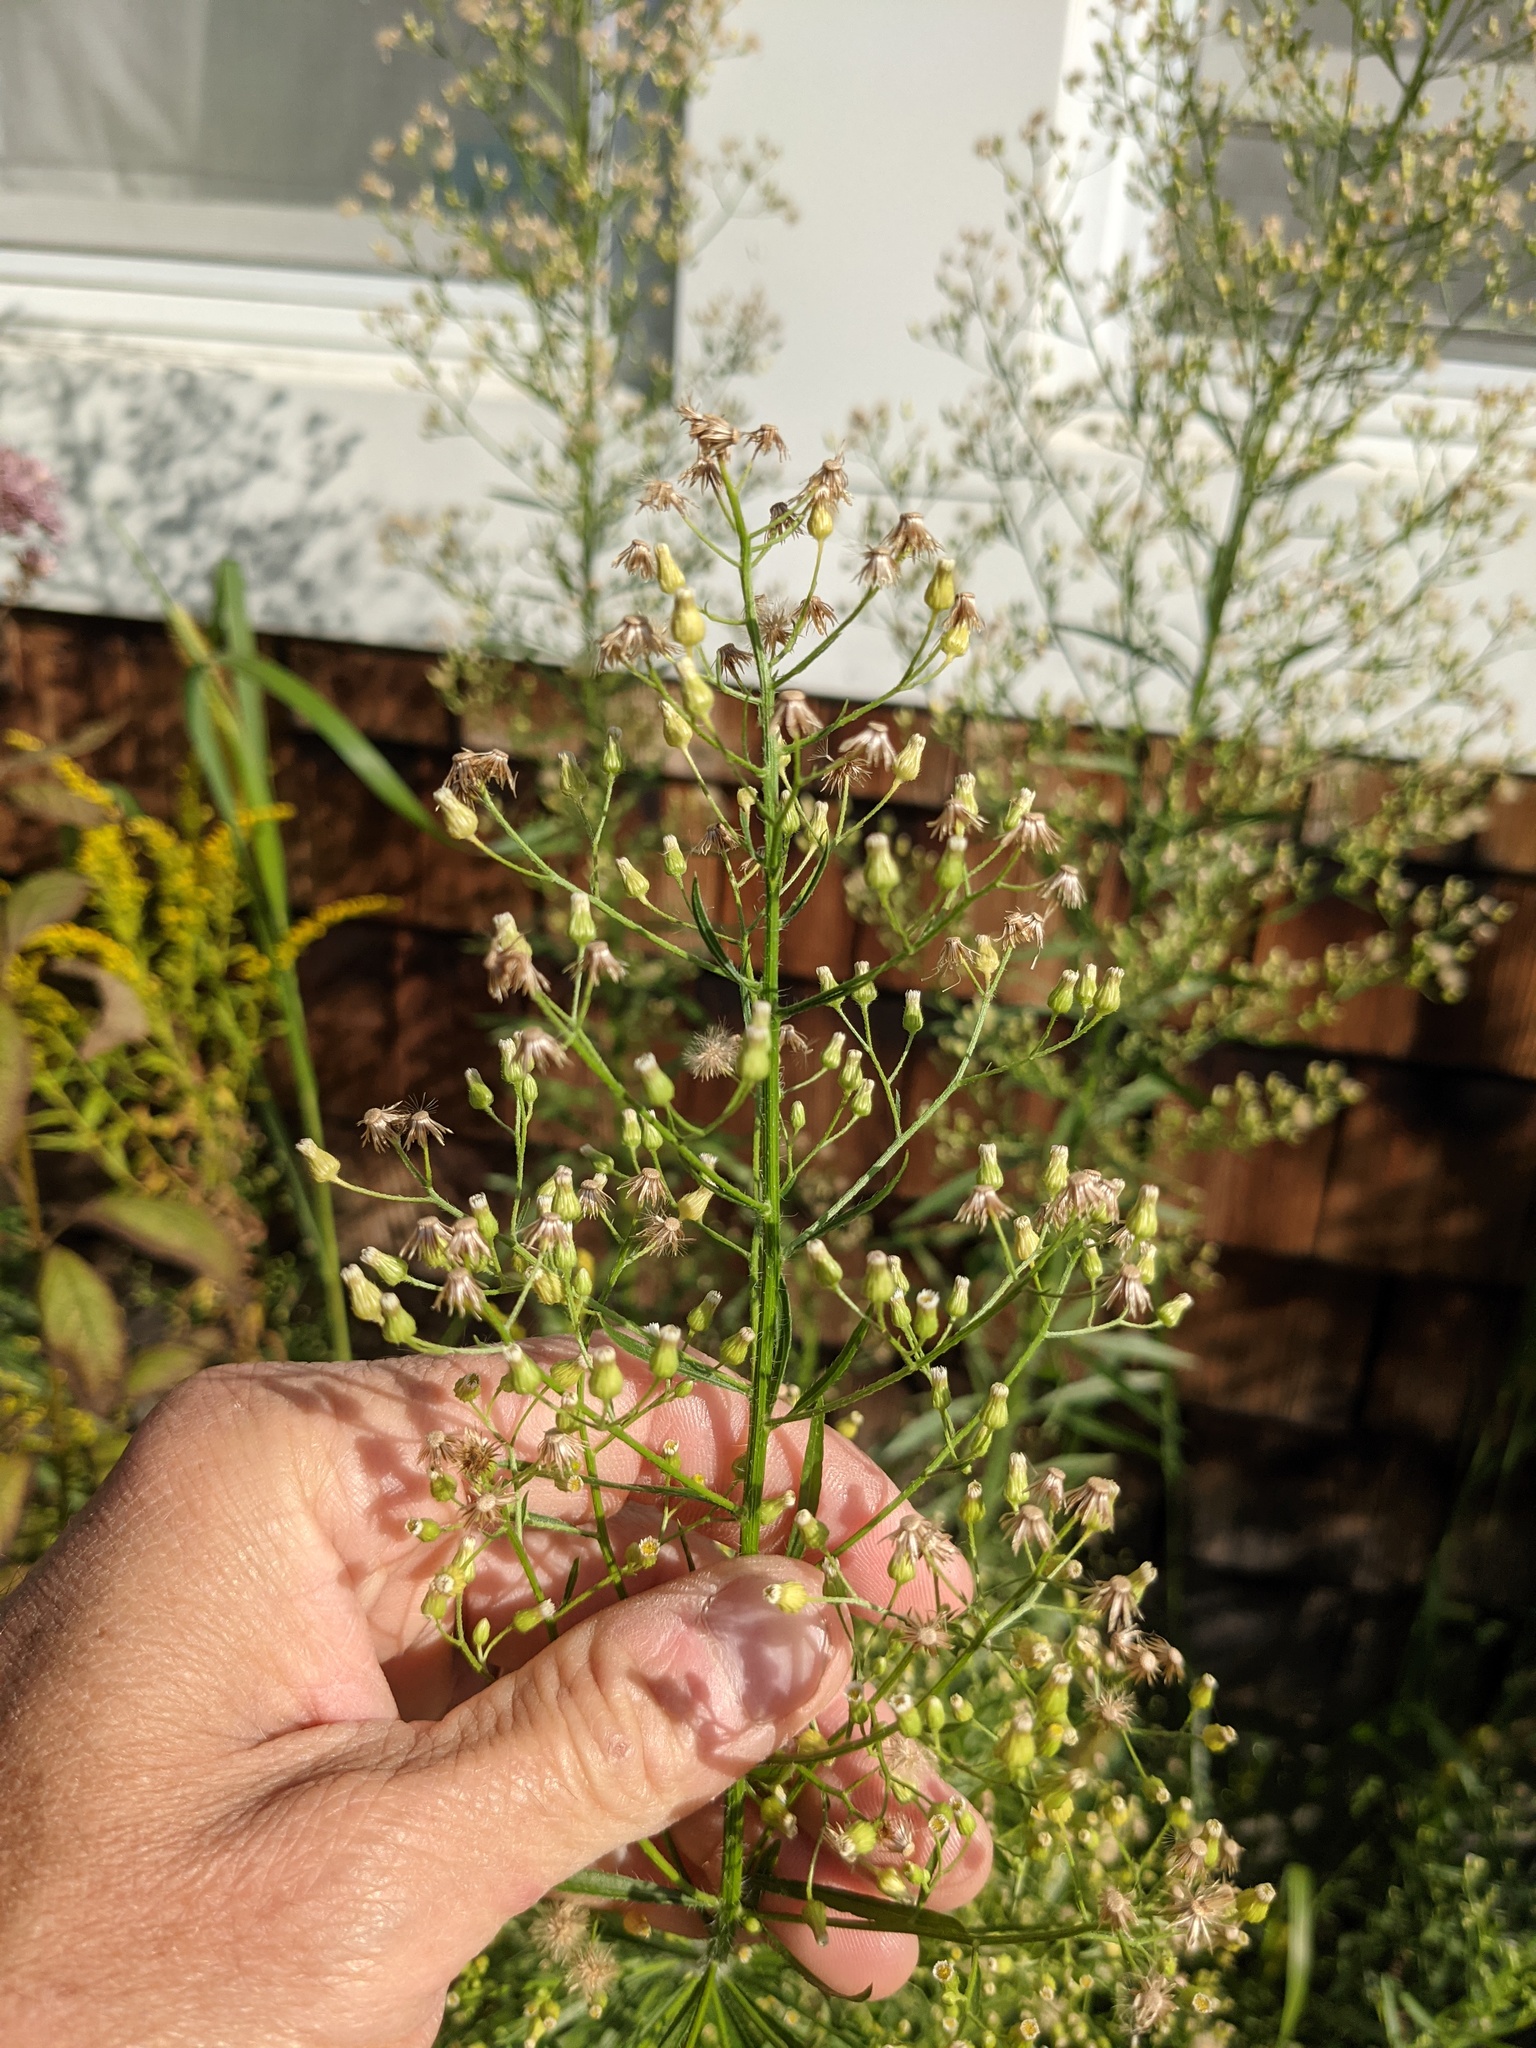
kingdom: Plantae
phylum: Tracheophyta
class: Magnoliopsida
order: Asterales
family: Asteraceae
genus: Erigeron
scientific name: Erigeron canadensis
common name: Canadian fleabane
